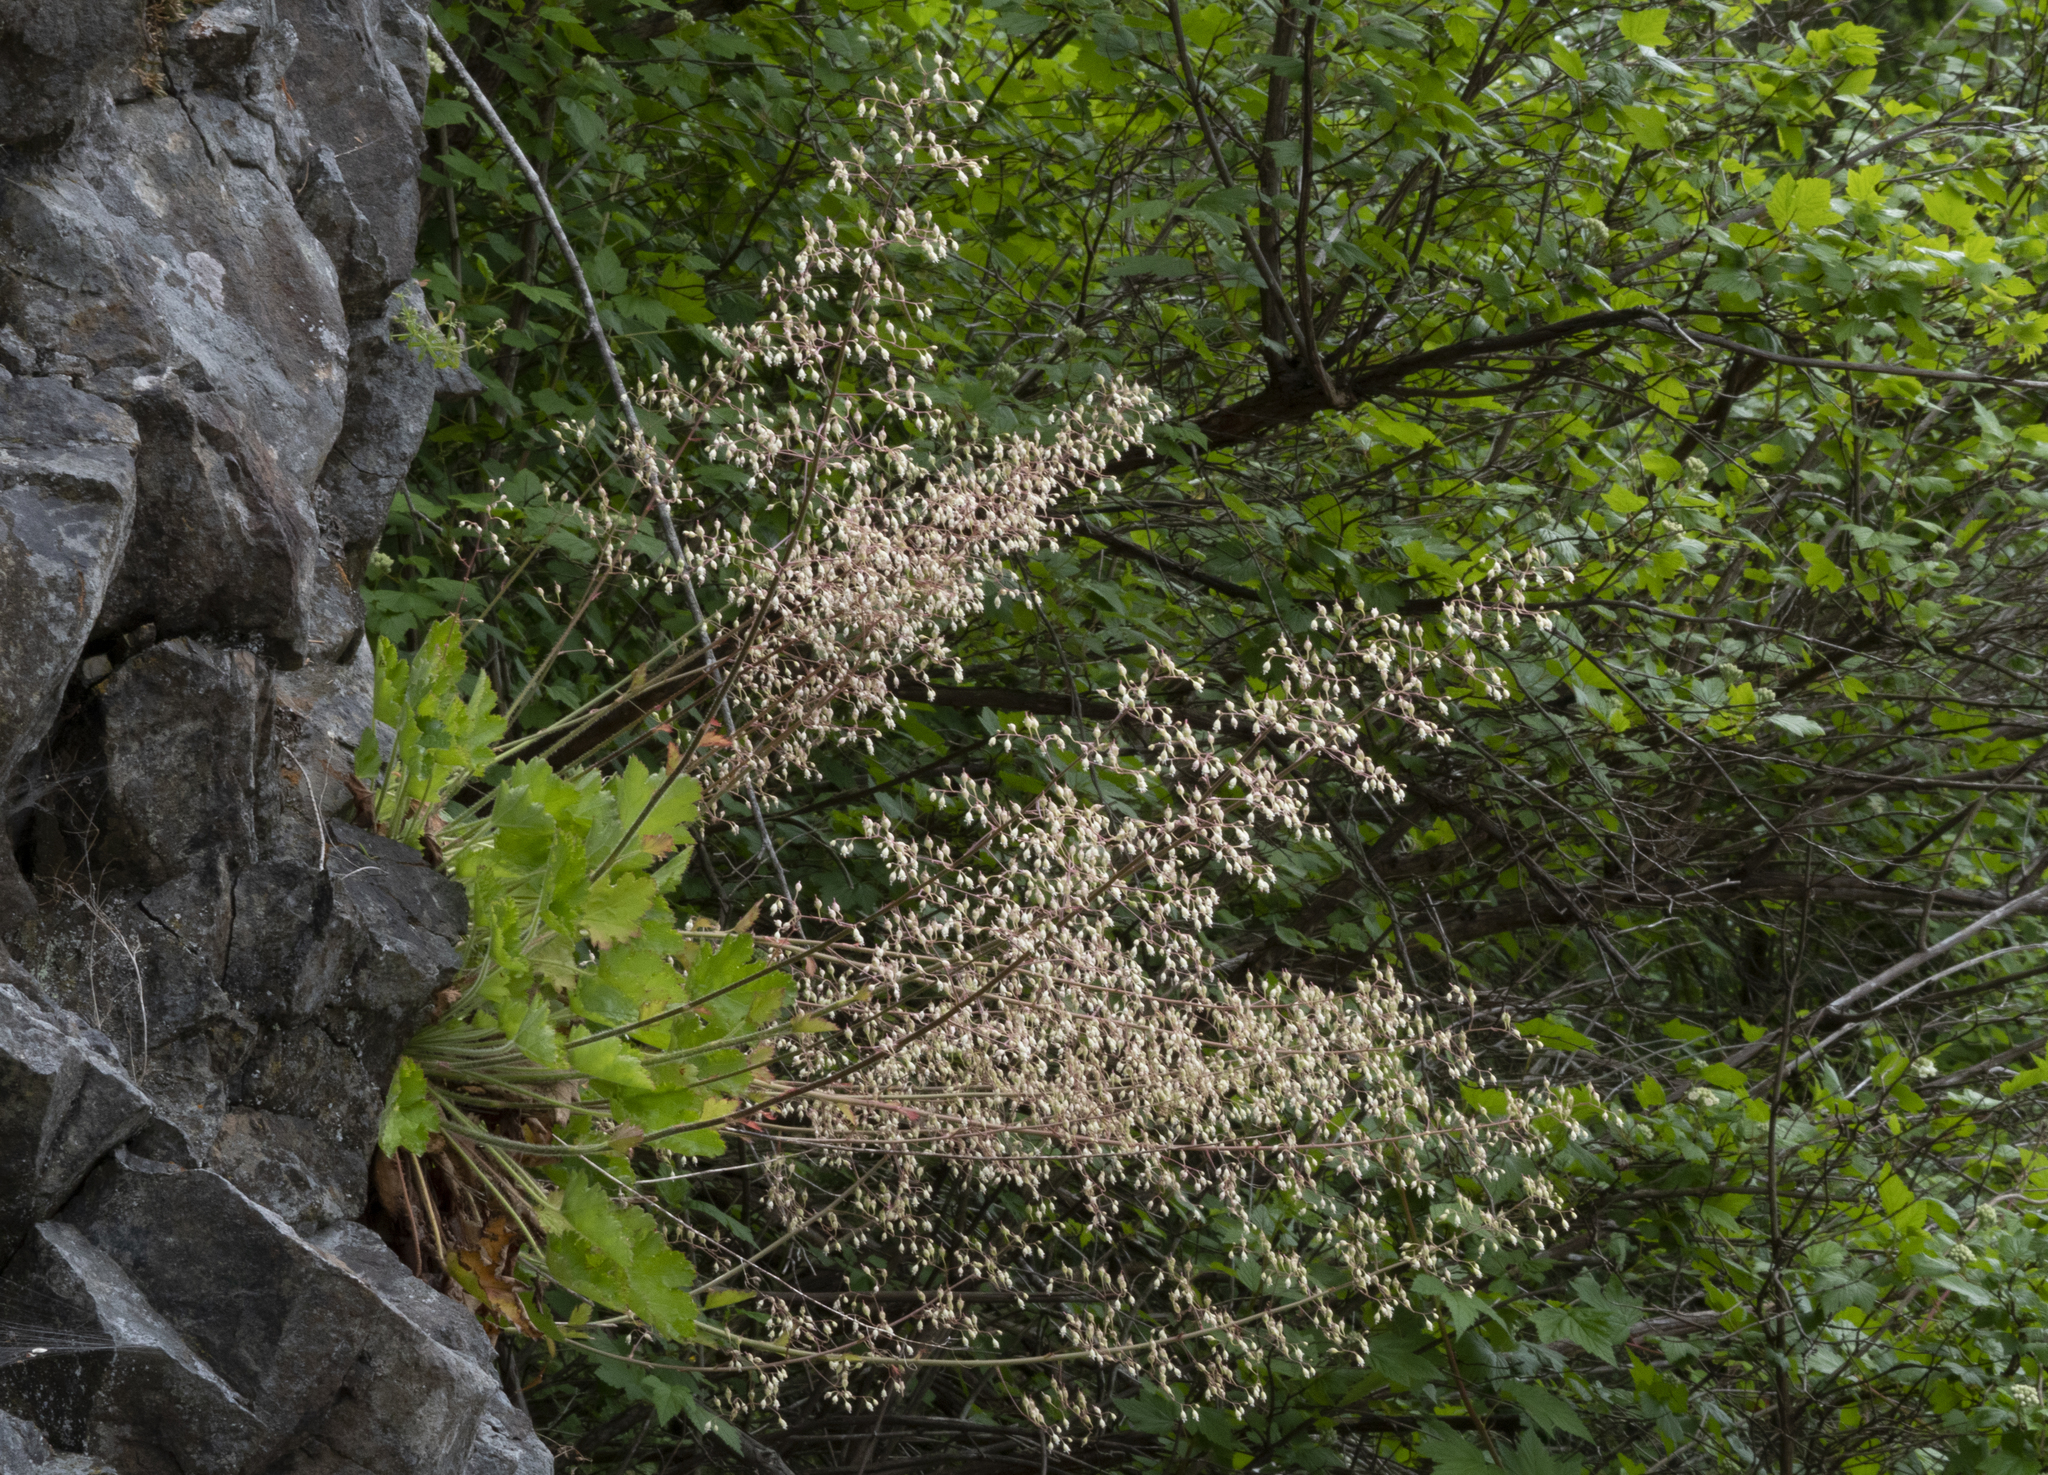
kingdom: Plantae
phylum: Tracheophyta
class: Magnoliopsida
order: Saxifragales
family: Saxifragaceae
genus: Heuchera
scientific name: Heuchera micrantha
